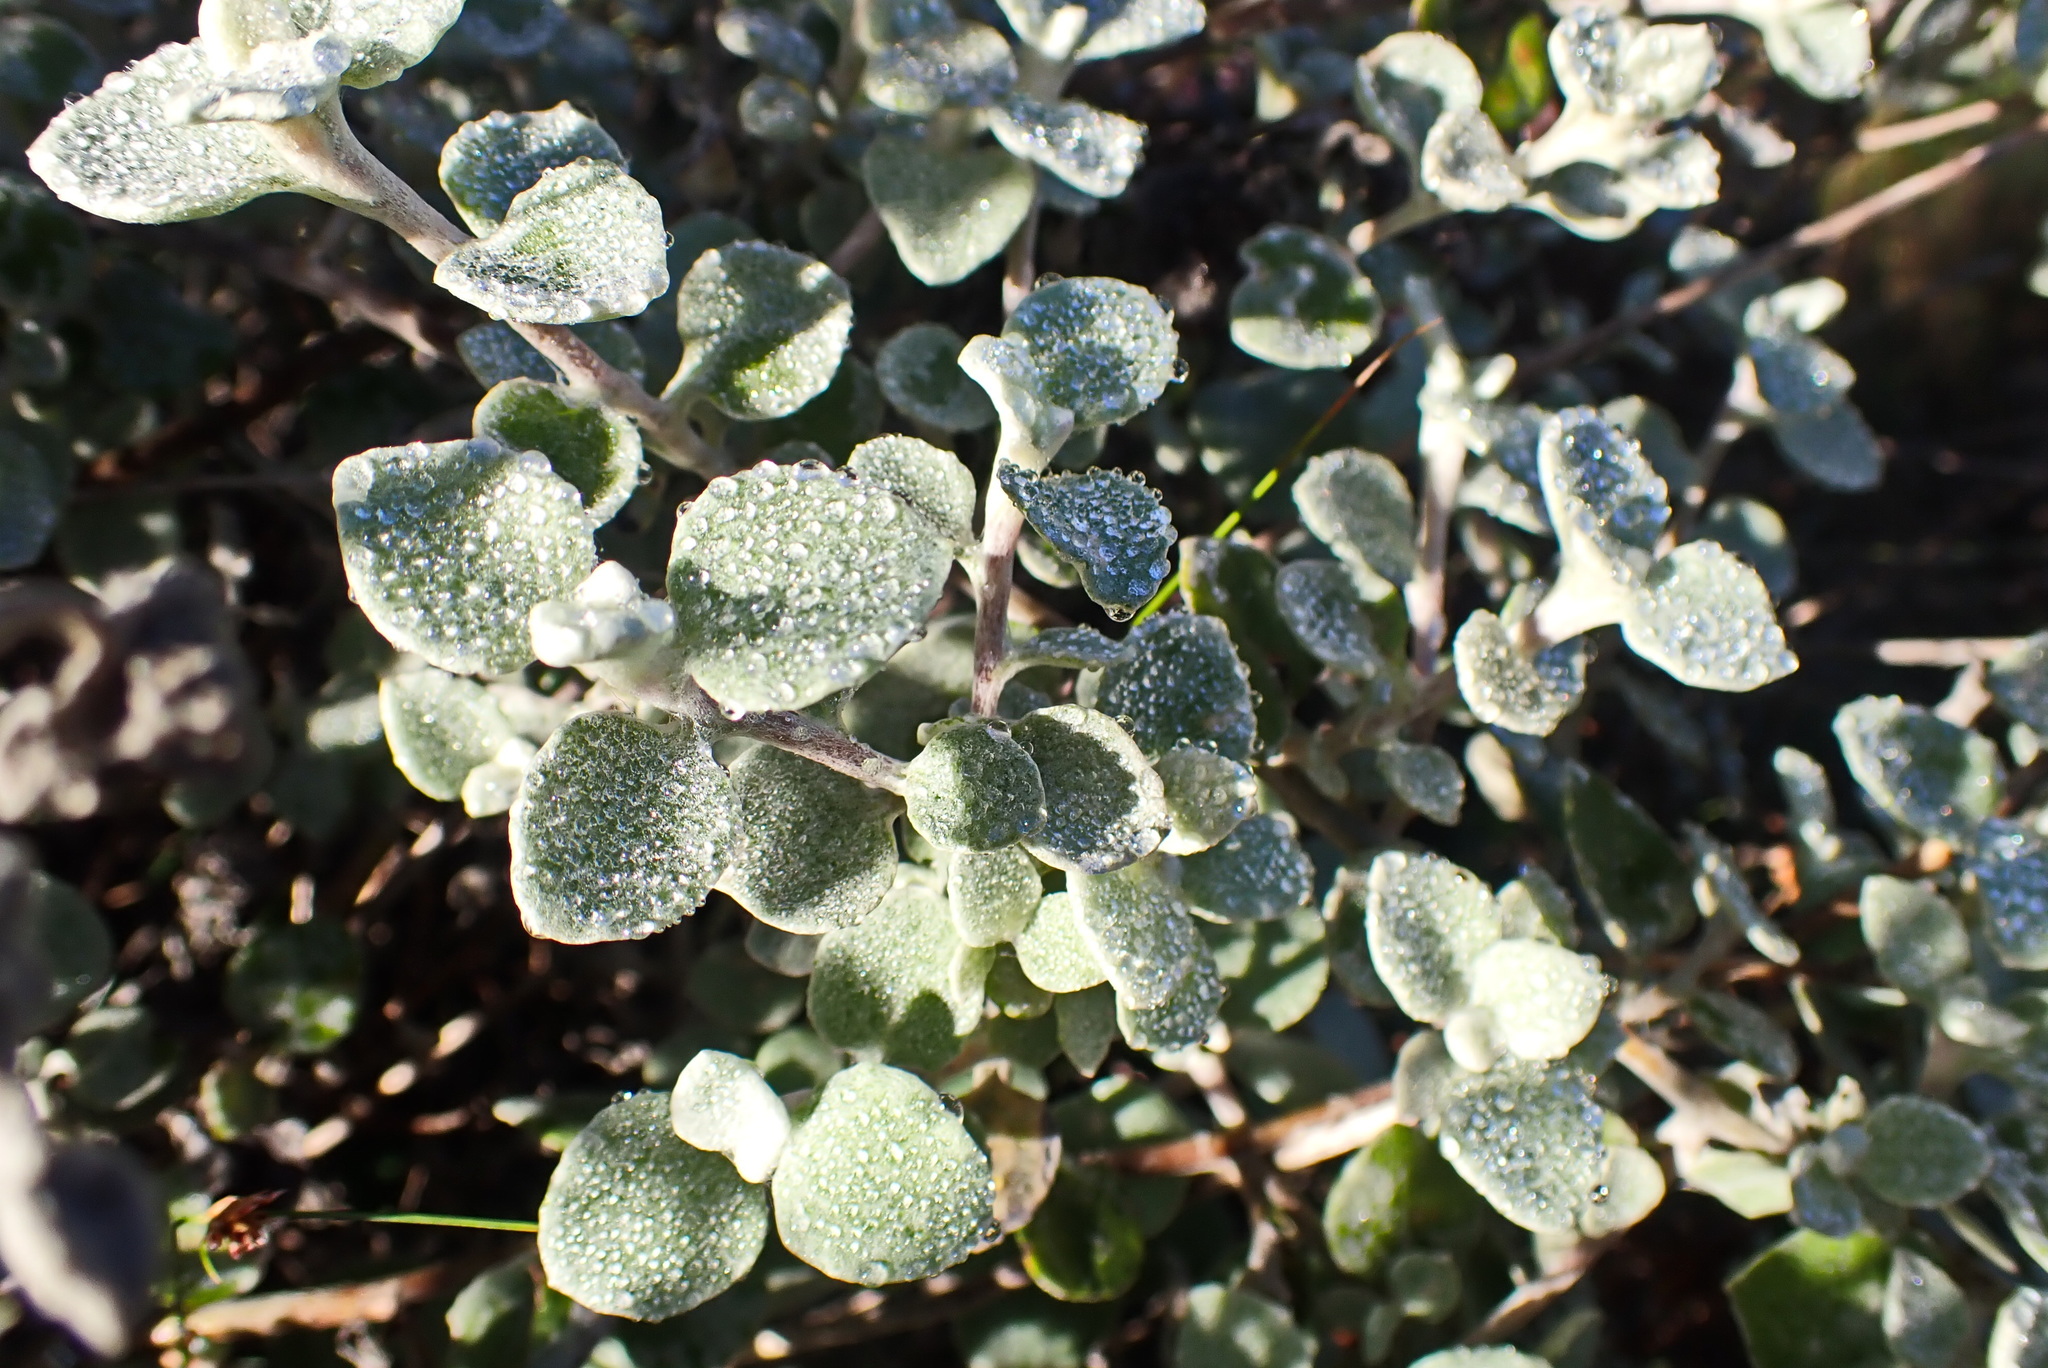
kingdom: Plantae
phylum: Tracheophyta
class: Magnoliopsida
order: Asterales
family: Asteraceae
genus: Helichrysum
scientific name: Helichrysum petiolare
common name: Licorice-plant
